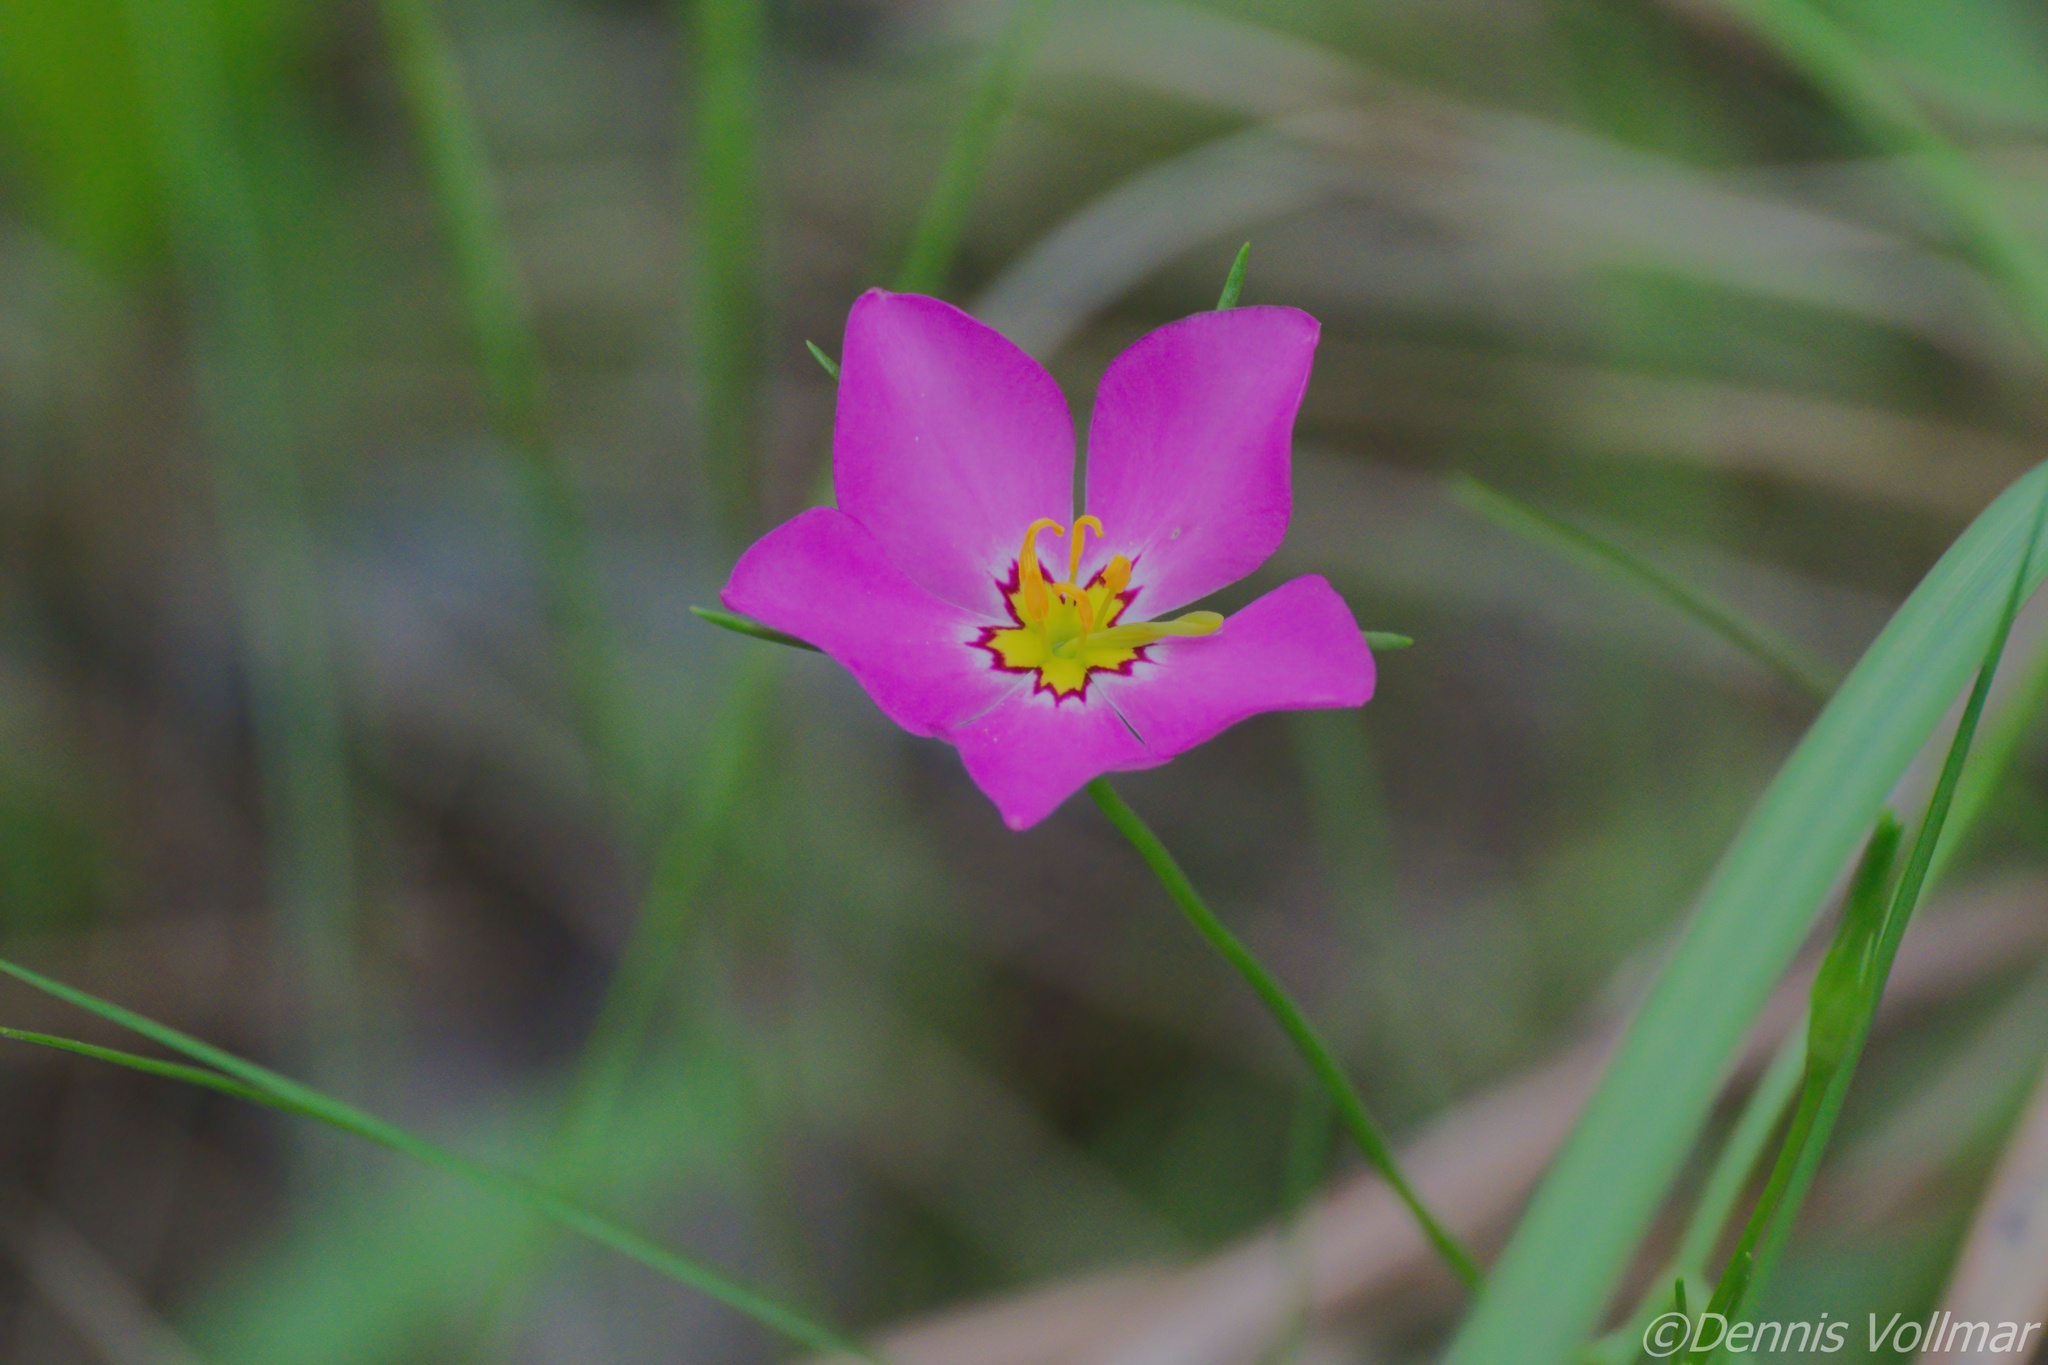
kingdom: Plantae
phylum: Tracheophyta
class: Magnoliopsida
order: Gentianales
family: Gentianaceae
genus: Sabatia
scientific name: Sabatia stellaris
